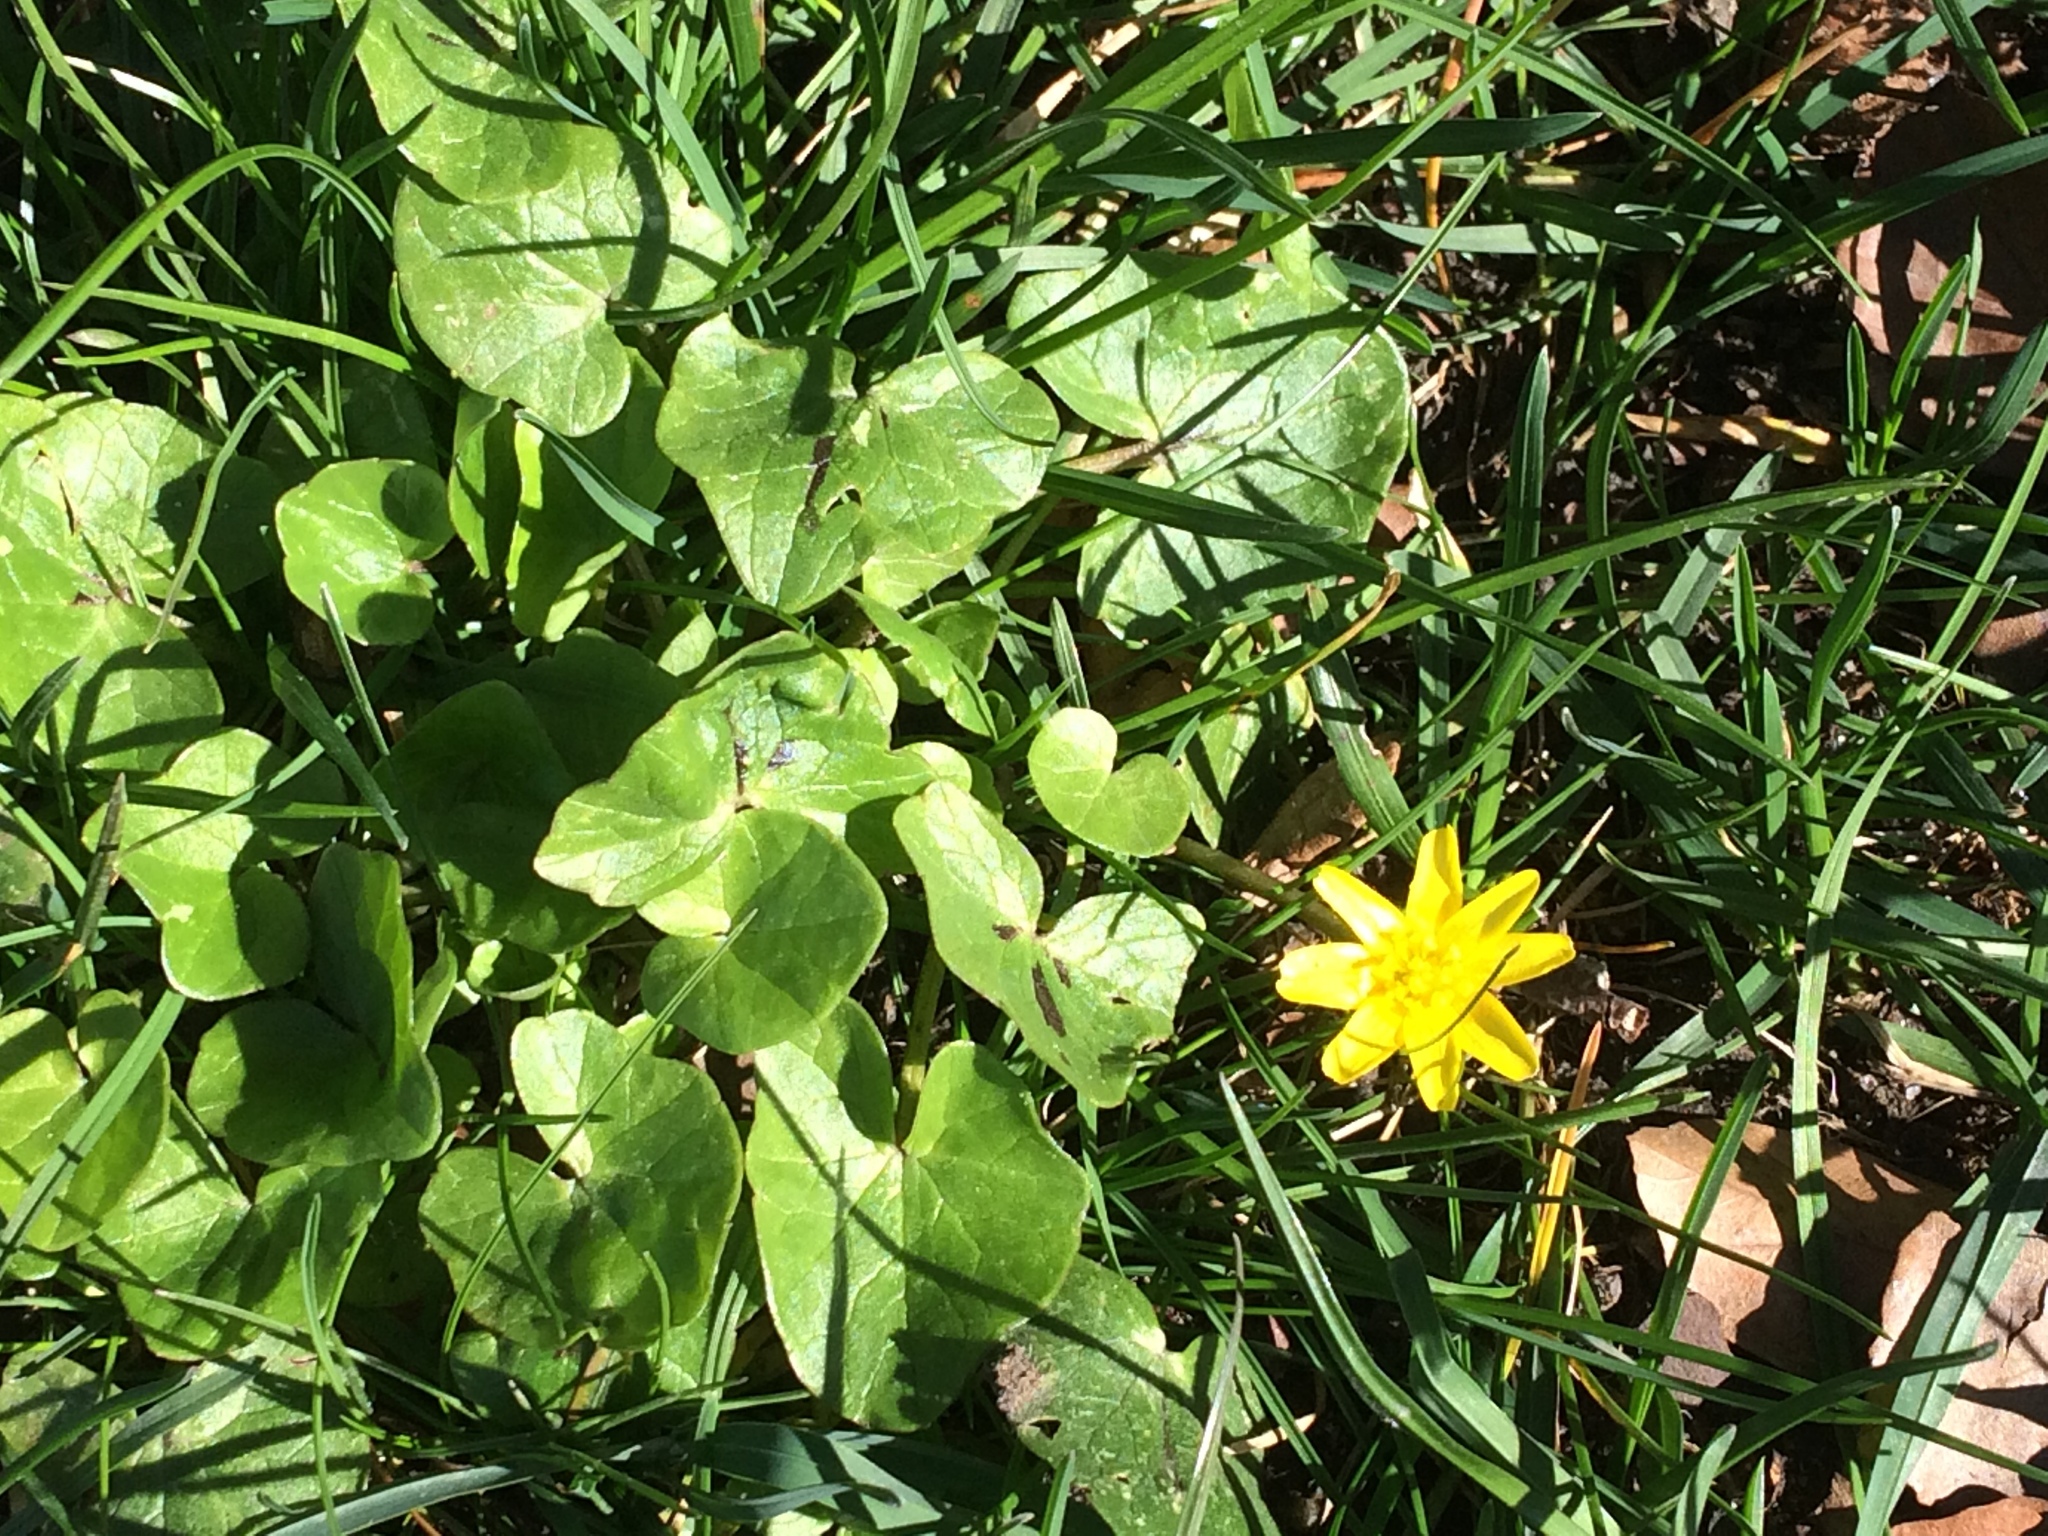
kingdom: Plantae
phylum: Tracheophyta
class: Magnoliopsida
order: Ranunculales
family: Ranunculaceae
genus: Ficaria
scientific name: Ficaria verna
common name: Lesser celandine
